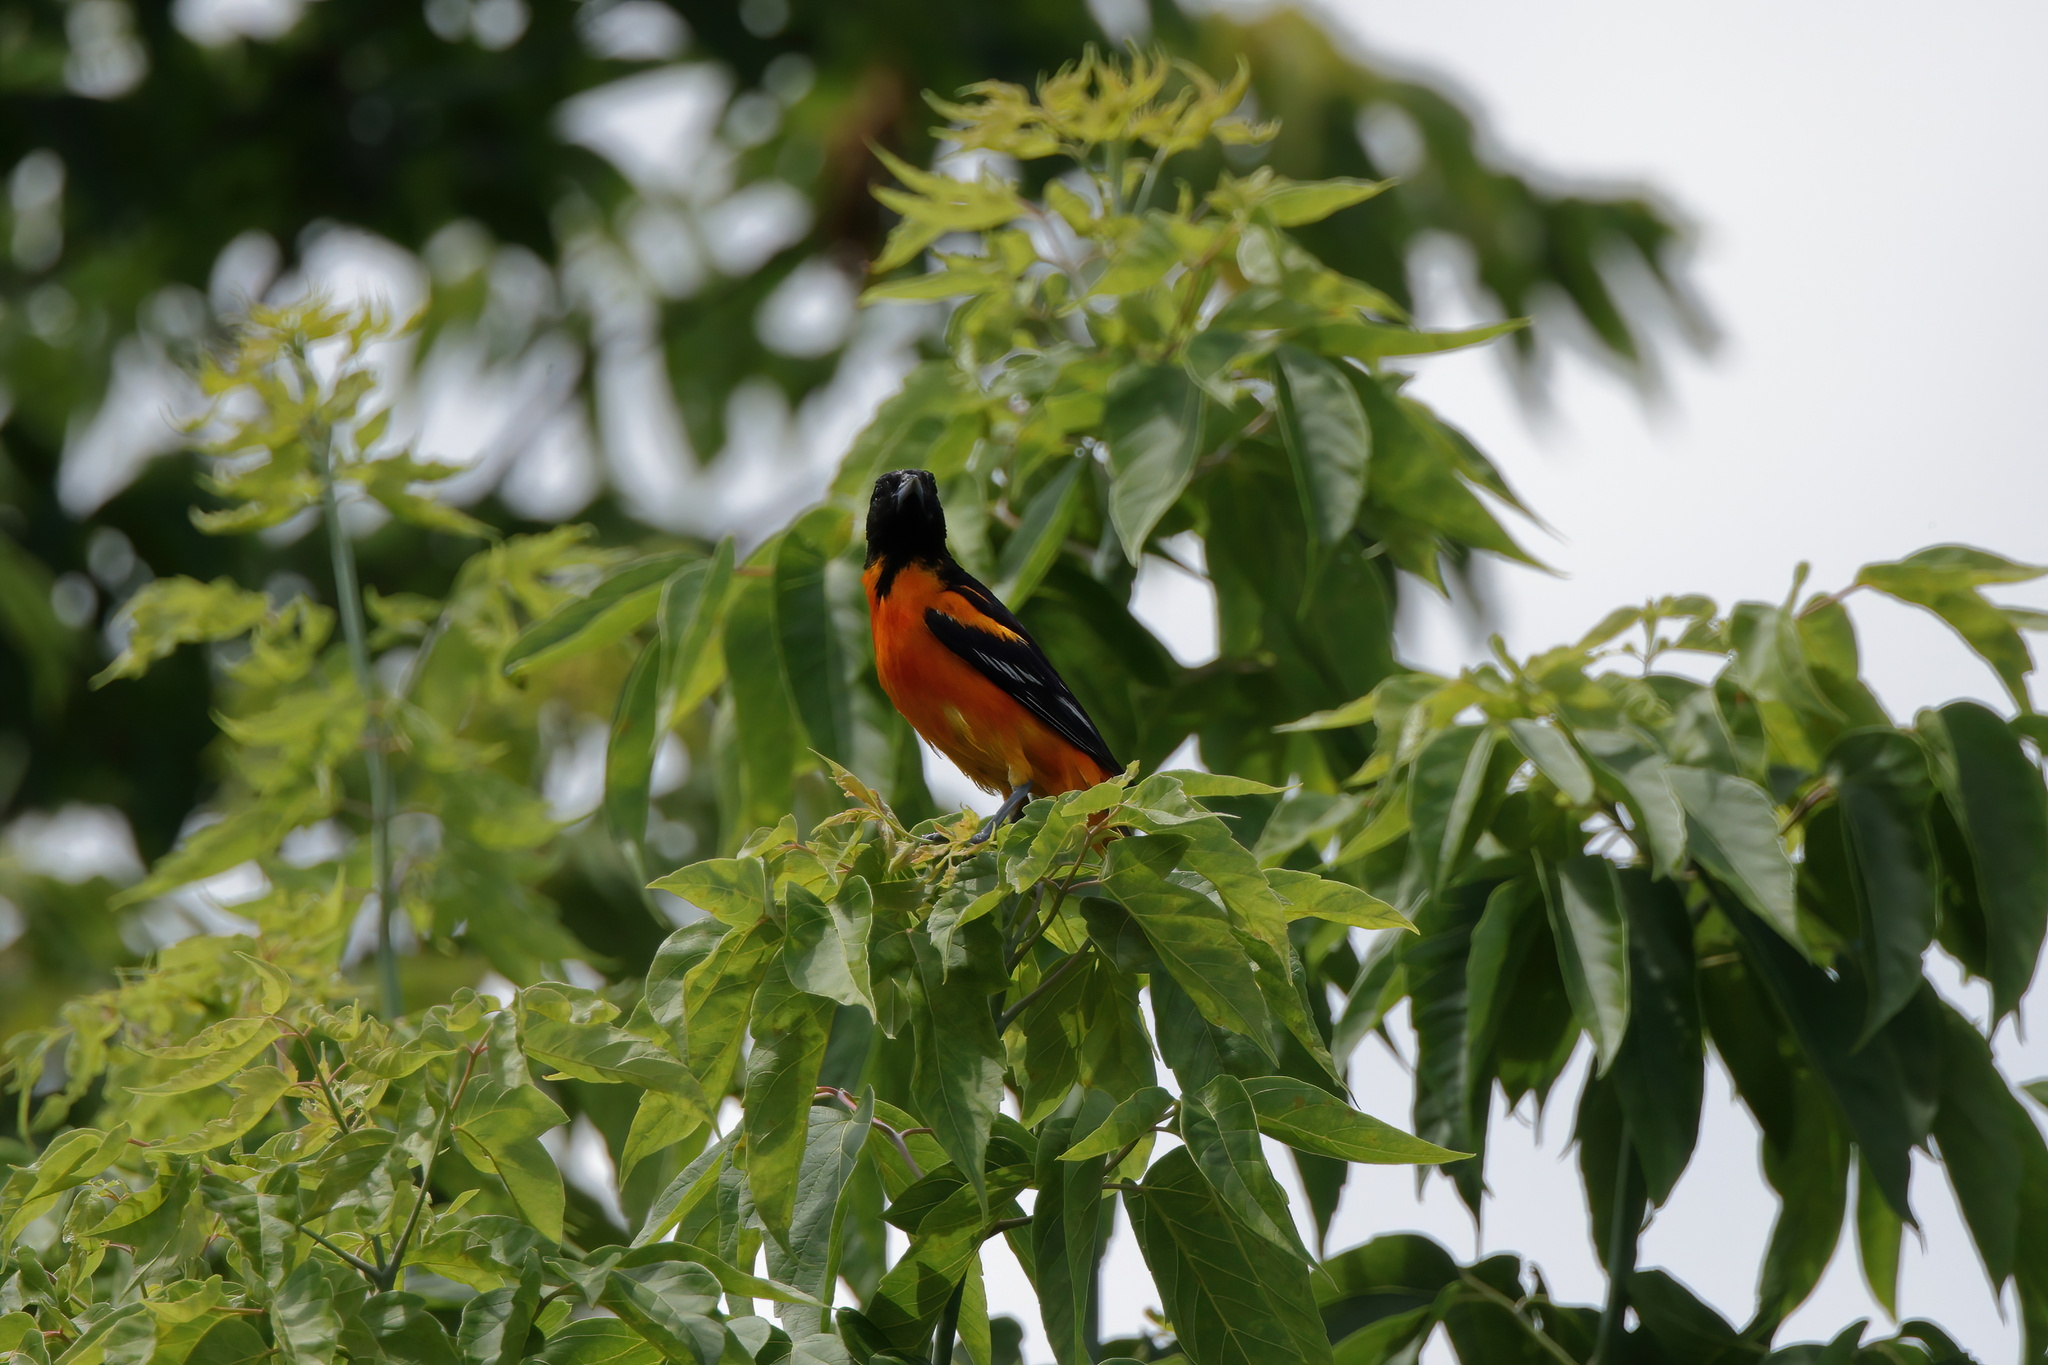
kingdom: Animalia
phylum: Chordata
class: Aves
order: Passeriformes
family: Icteridae
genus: Icterus
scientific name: Icterus galbula
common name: Baltimore oriole
